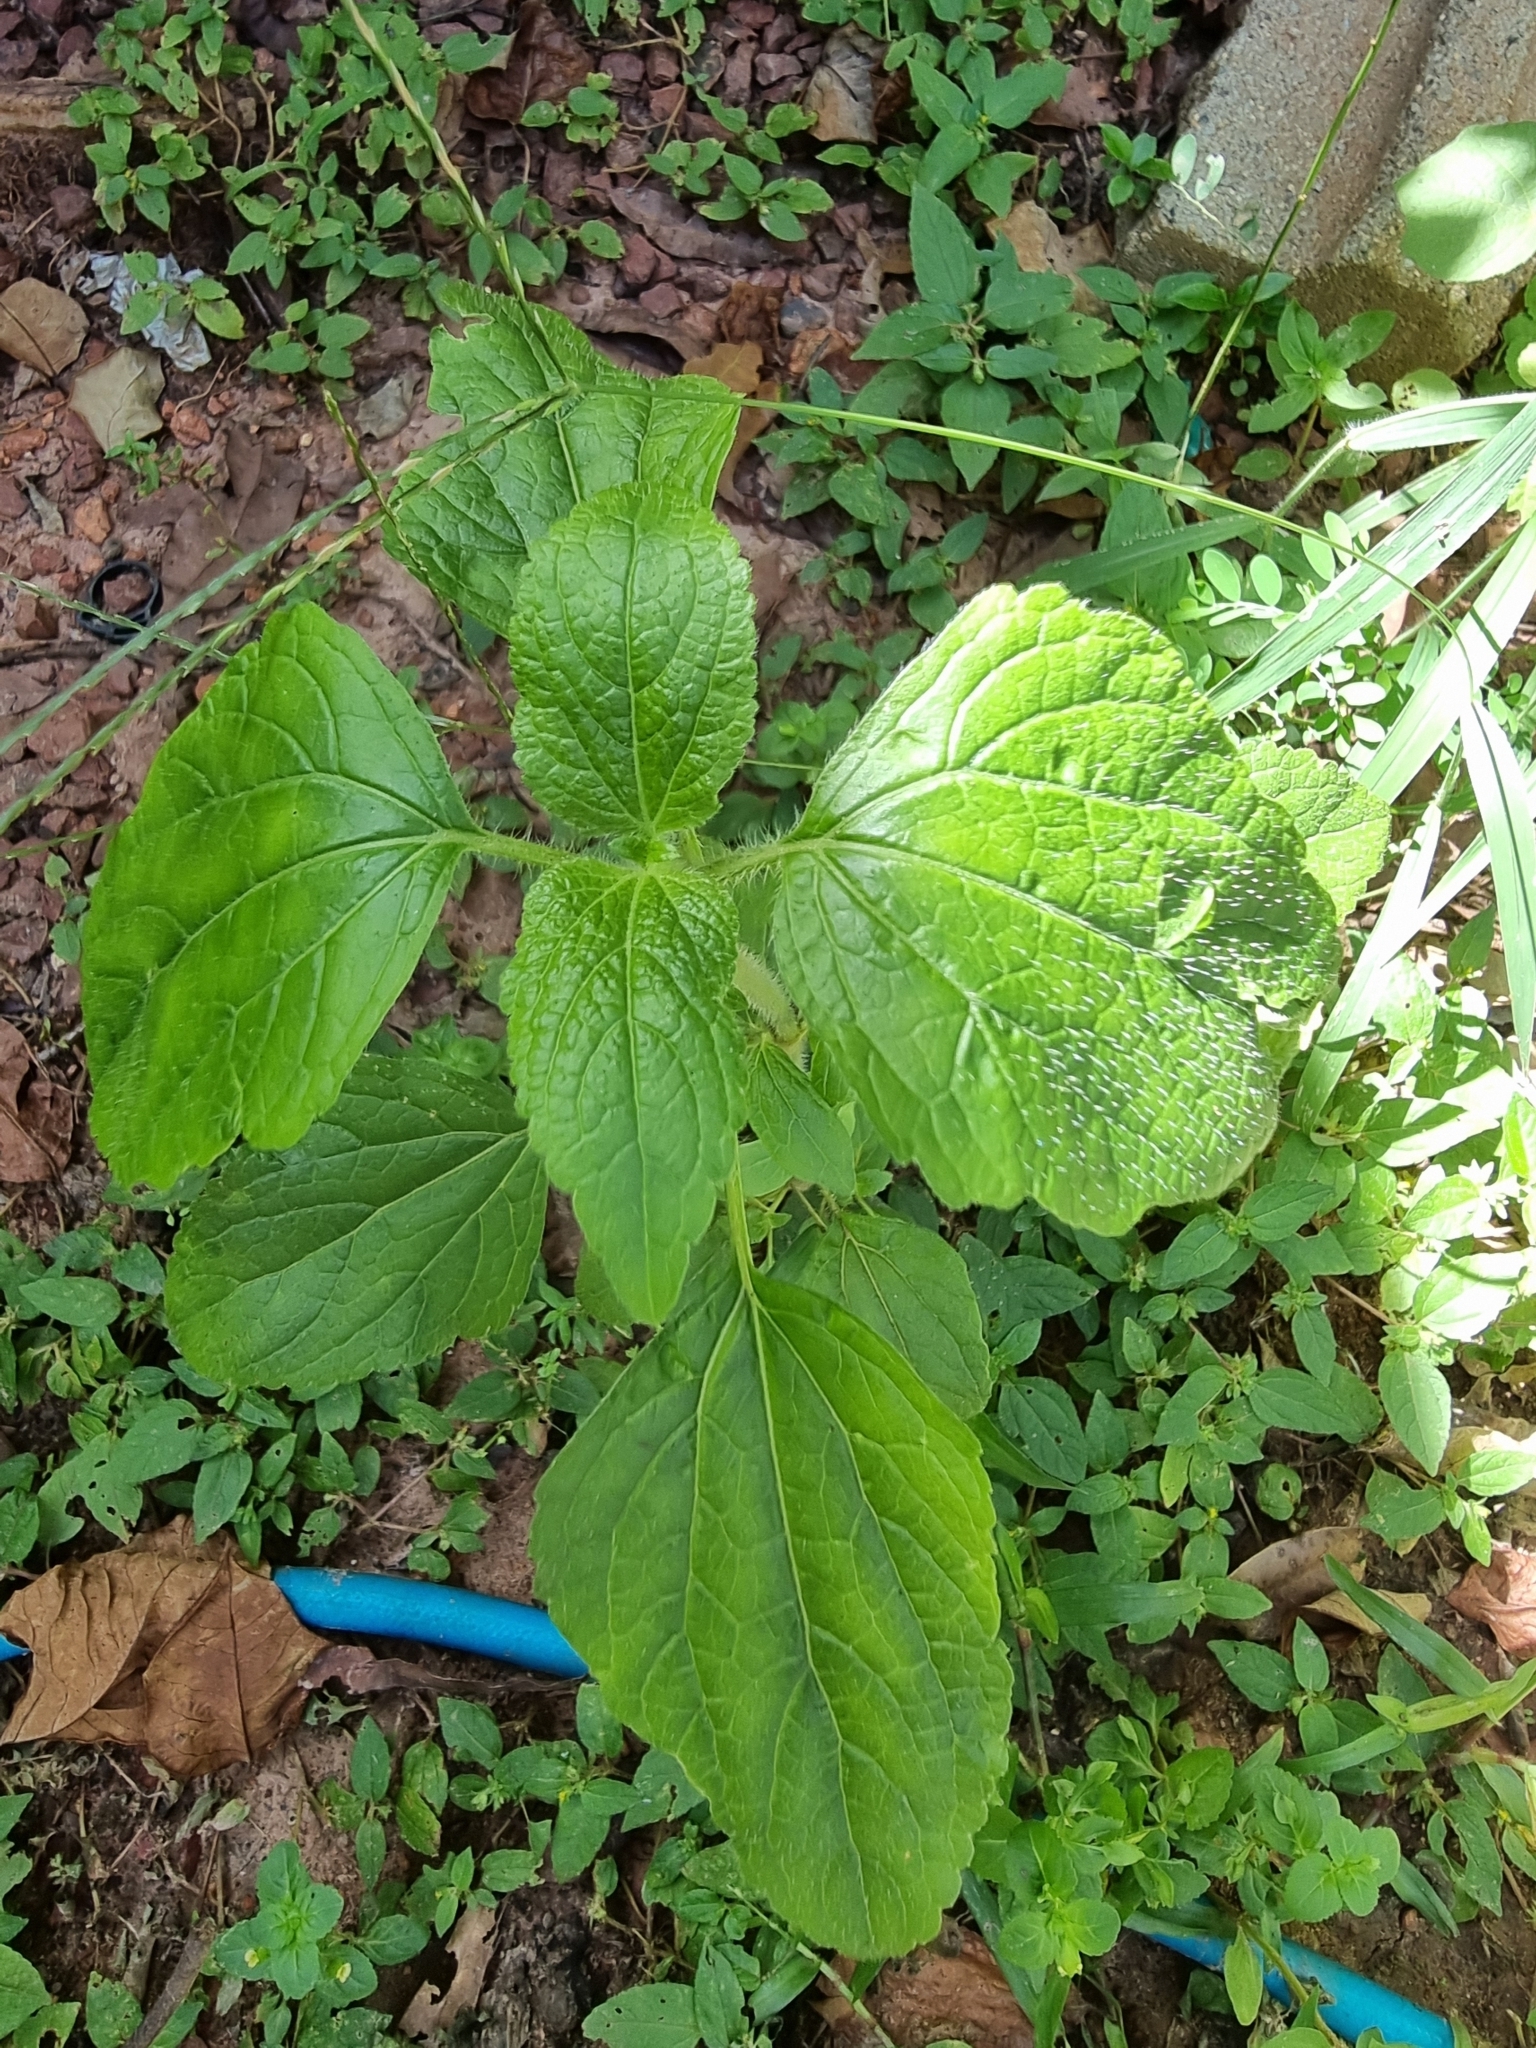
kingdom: Plantae
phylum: Tracheophyta
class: Magnoliopsida
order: Asterales
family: Asteraceae
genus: Ageratum
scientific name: Ageratum conyzoides
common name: Tropical whiteweed
